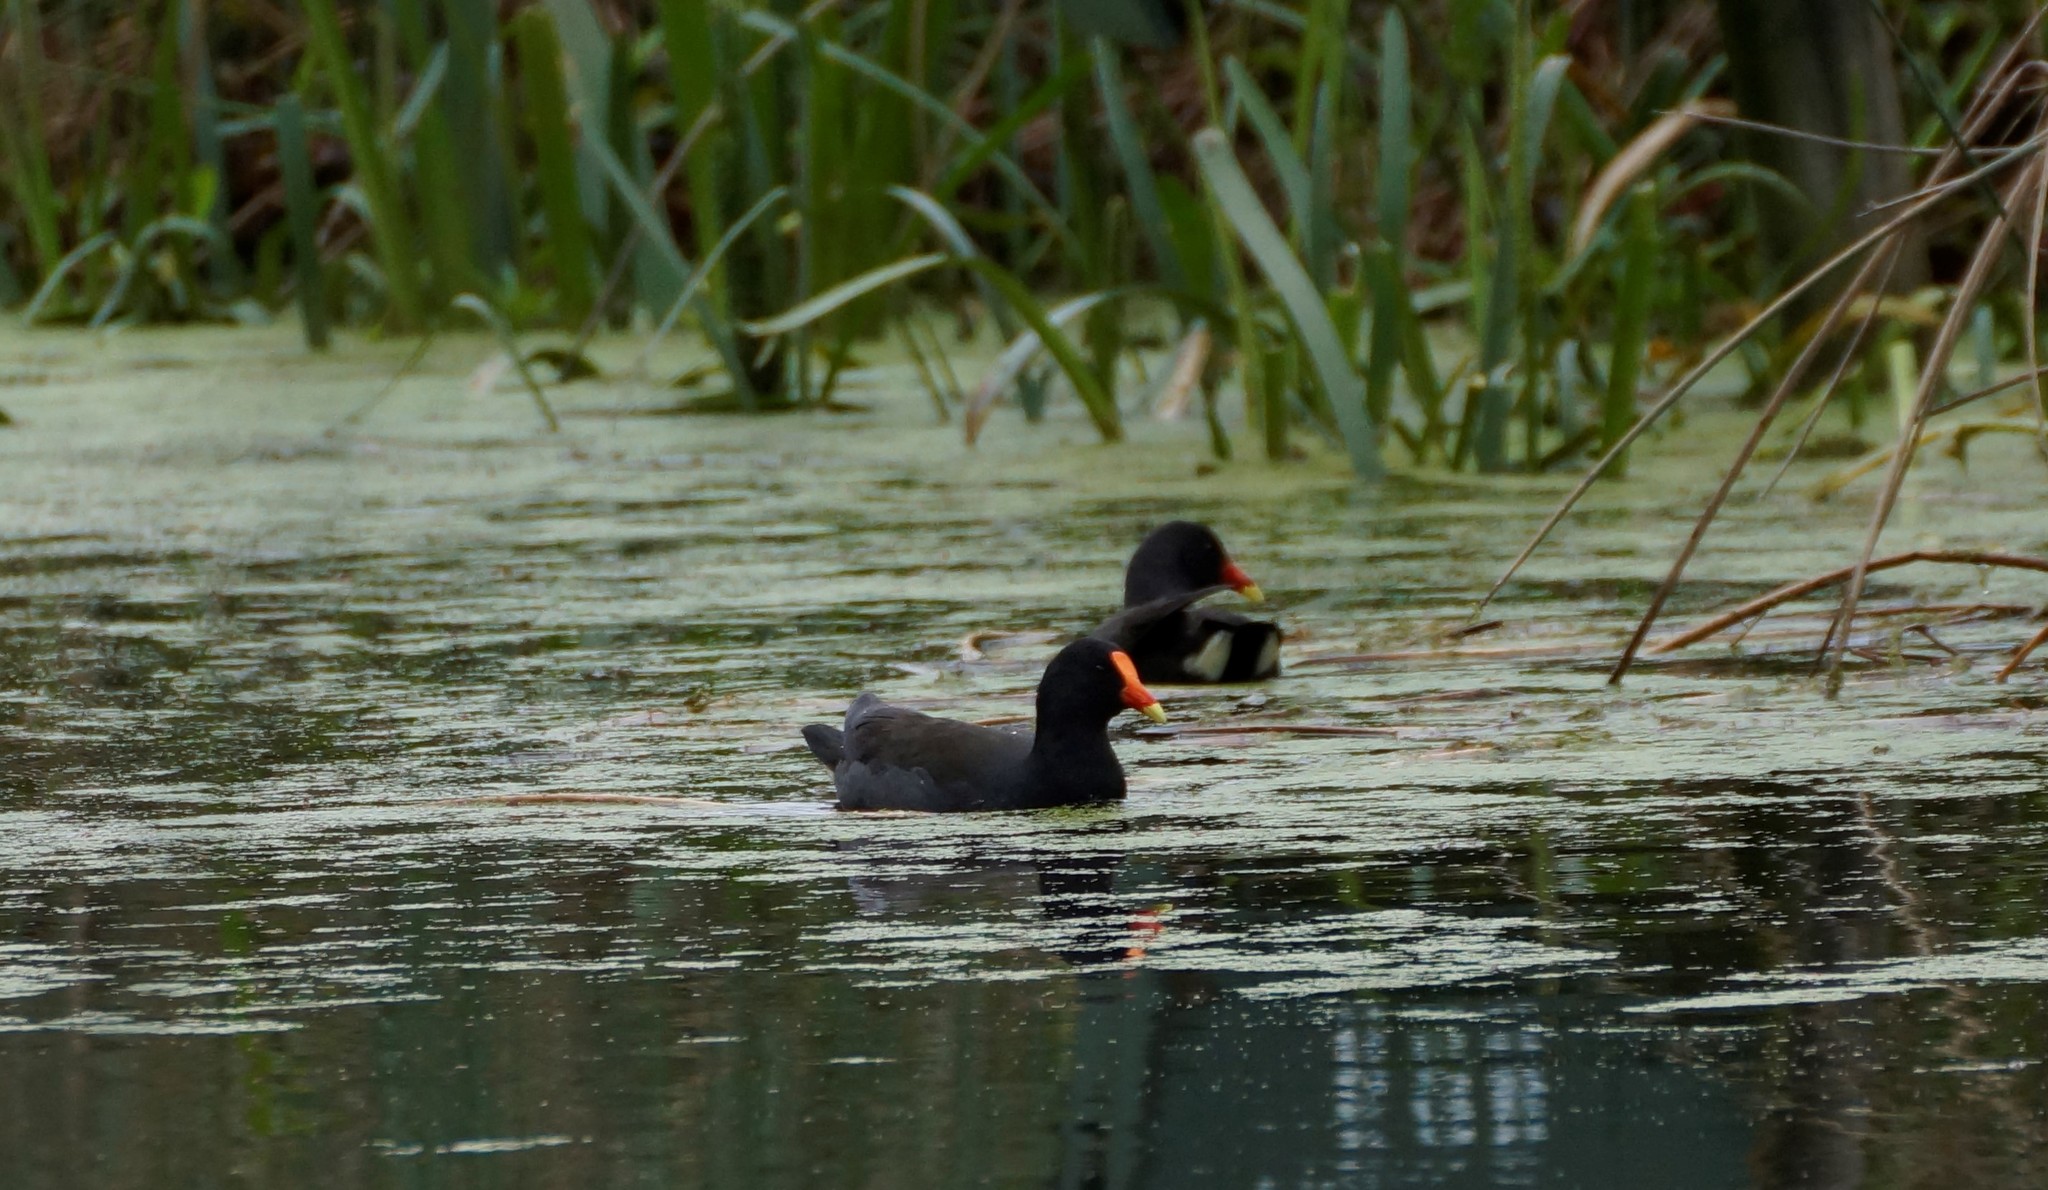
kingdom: Animalia
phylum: Chordata
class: Aves
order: Gruiformes
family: Rallidae
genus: Gallinula
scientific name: Gallinula tenebrosa
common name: Dusky moorhen
